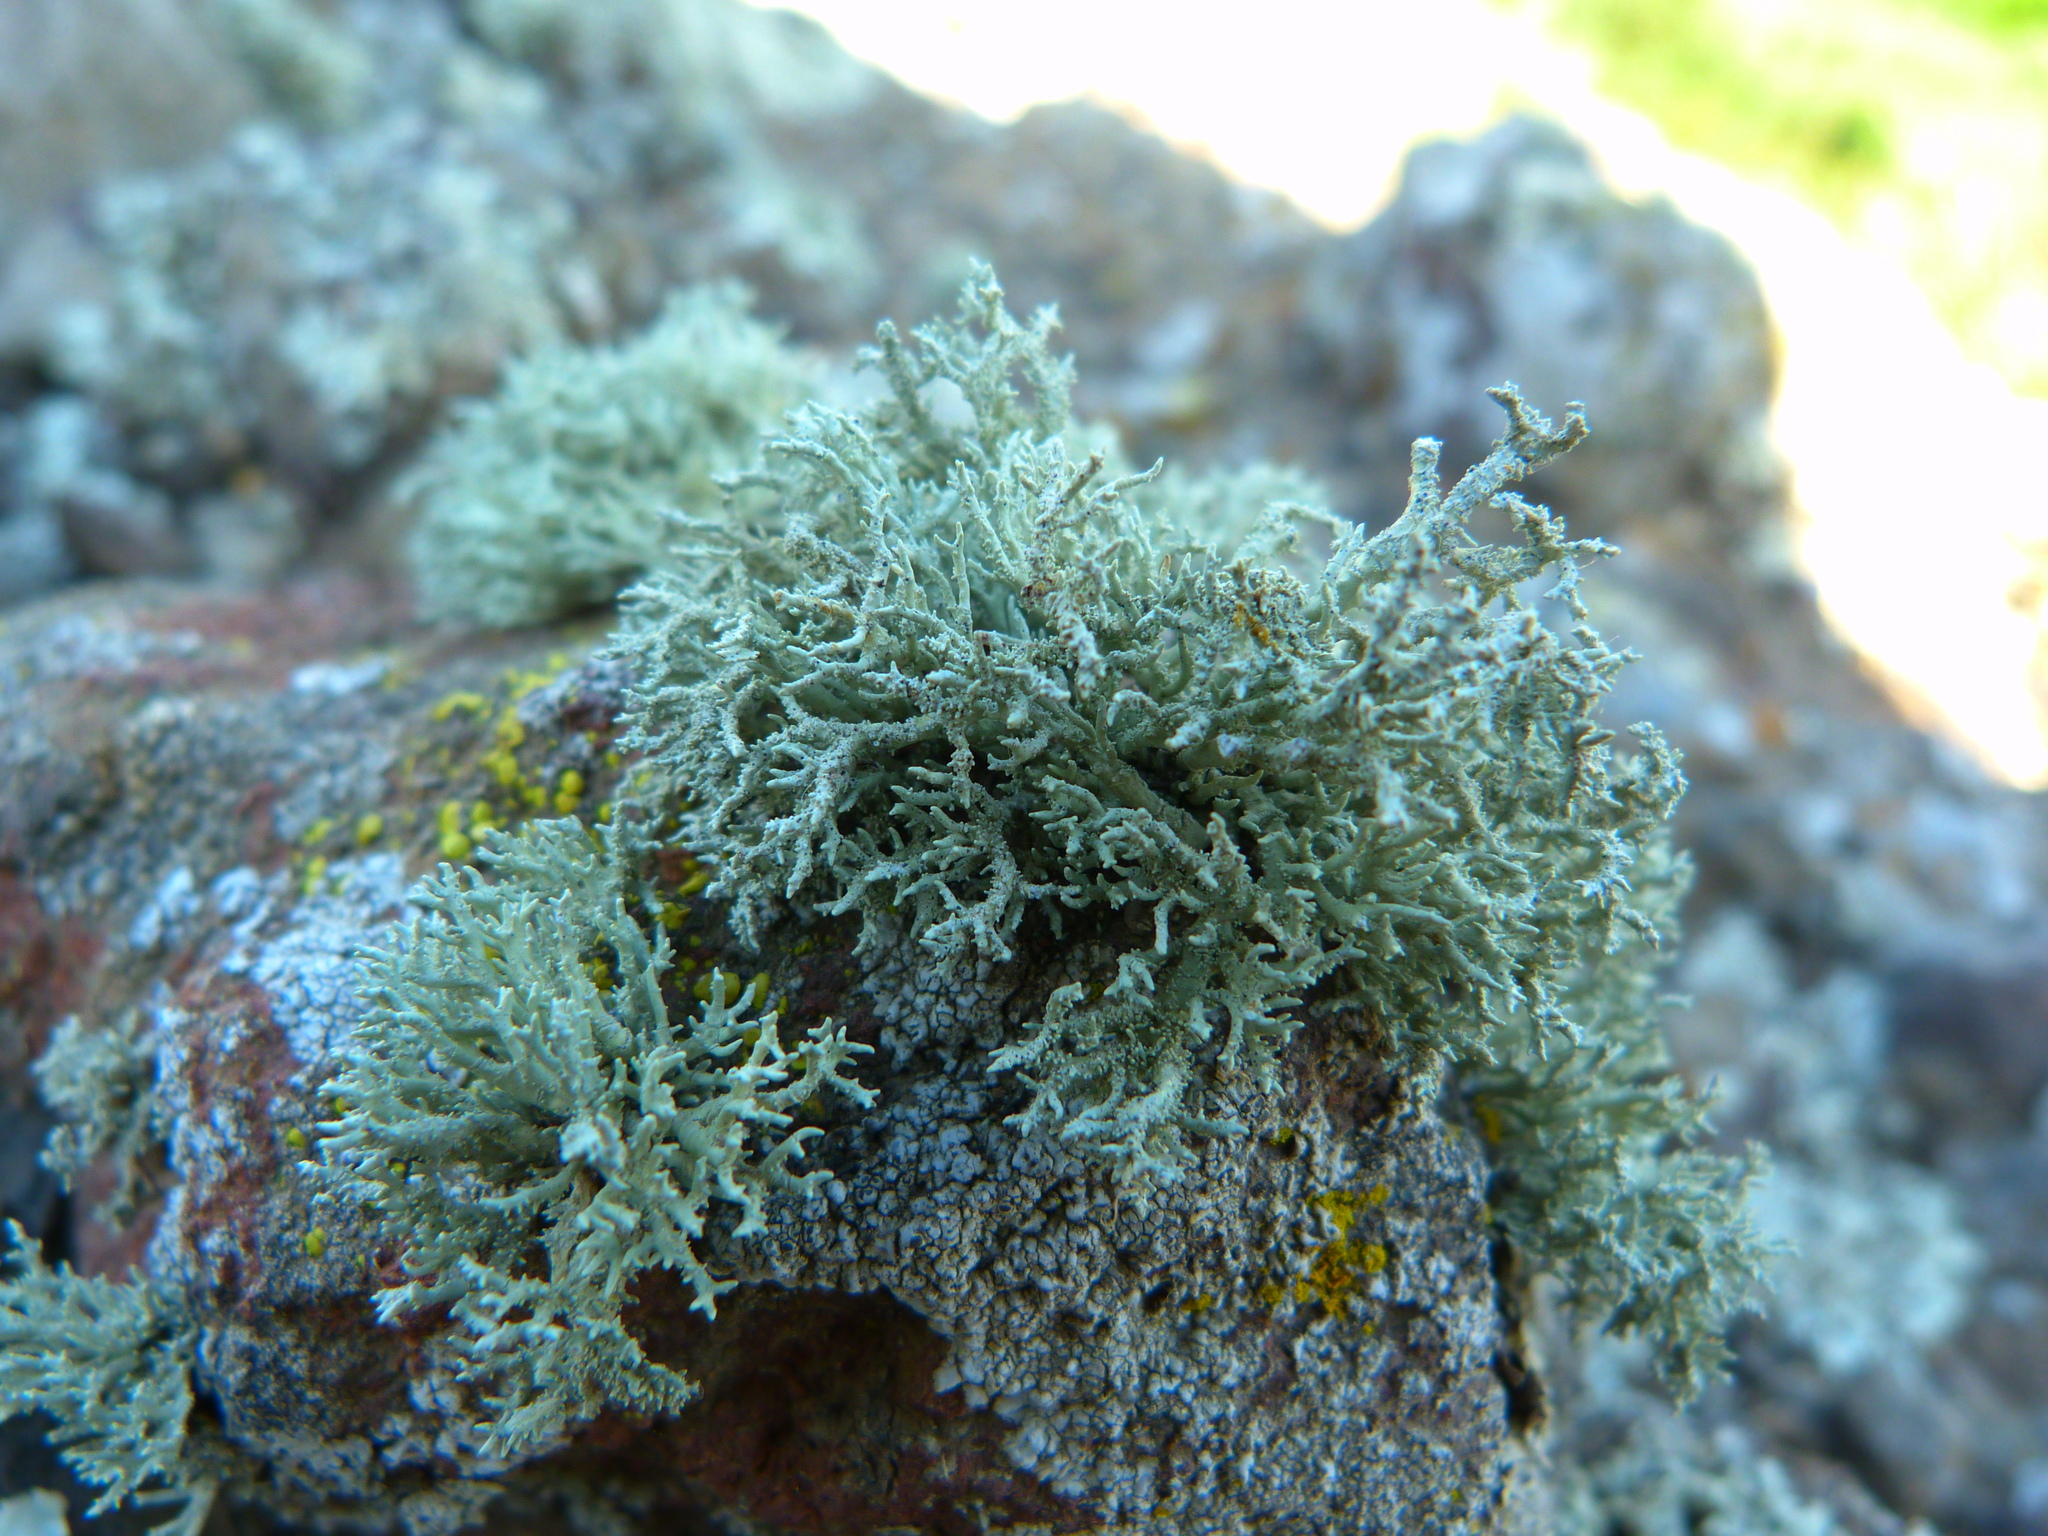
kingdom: Fungi
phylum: Ascomycota
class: Lecanoromycetes
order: Lecanorales
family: Ramalinaceae
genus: Niebla
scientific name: Niebla isidiaescens
